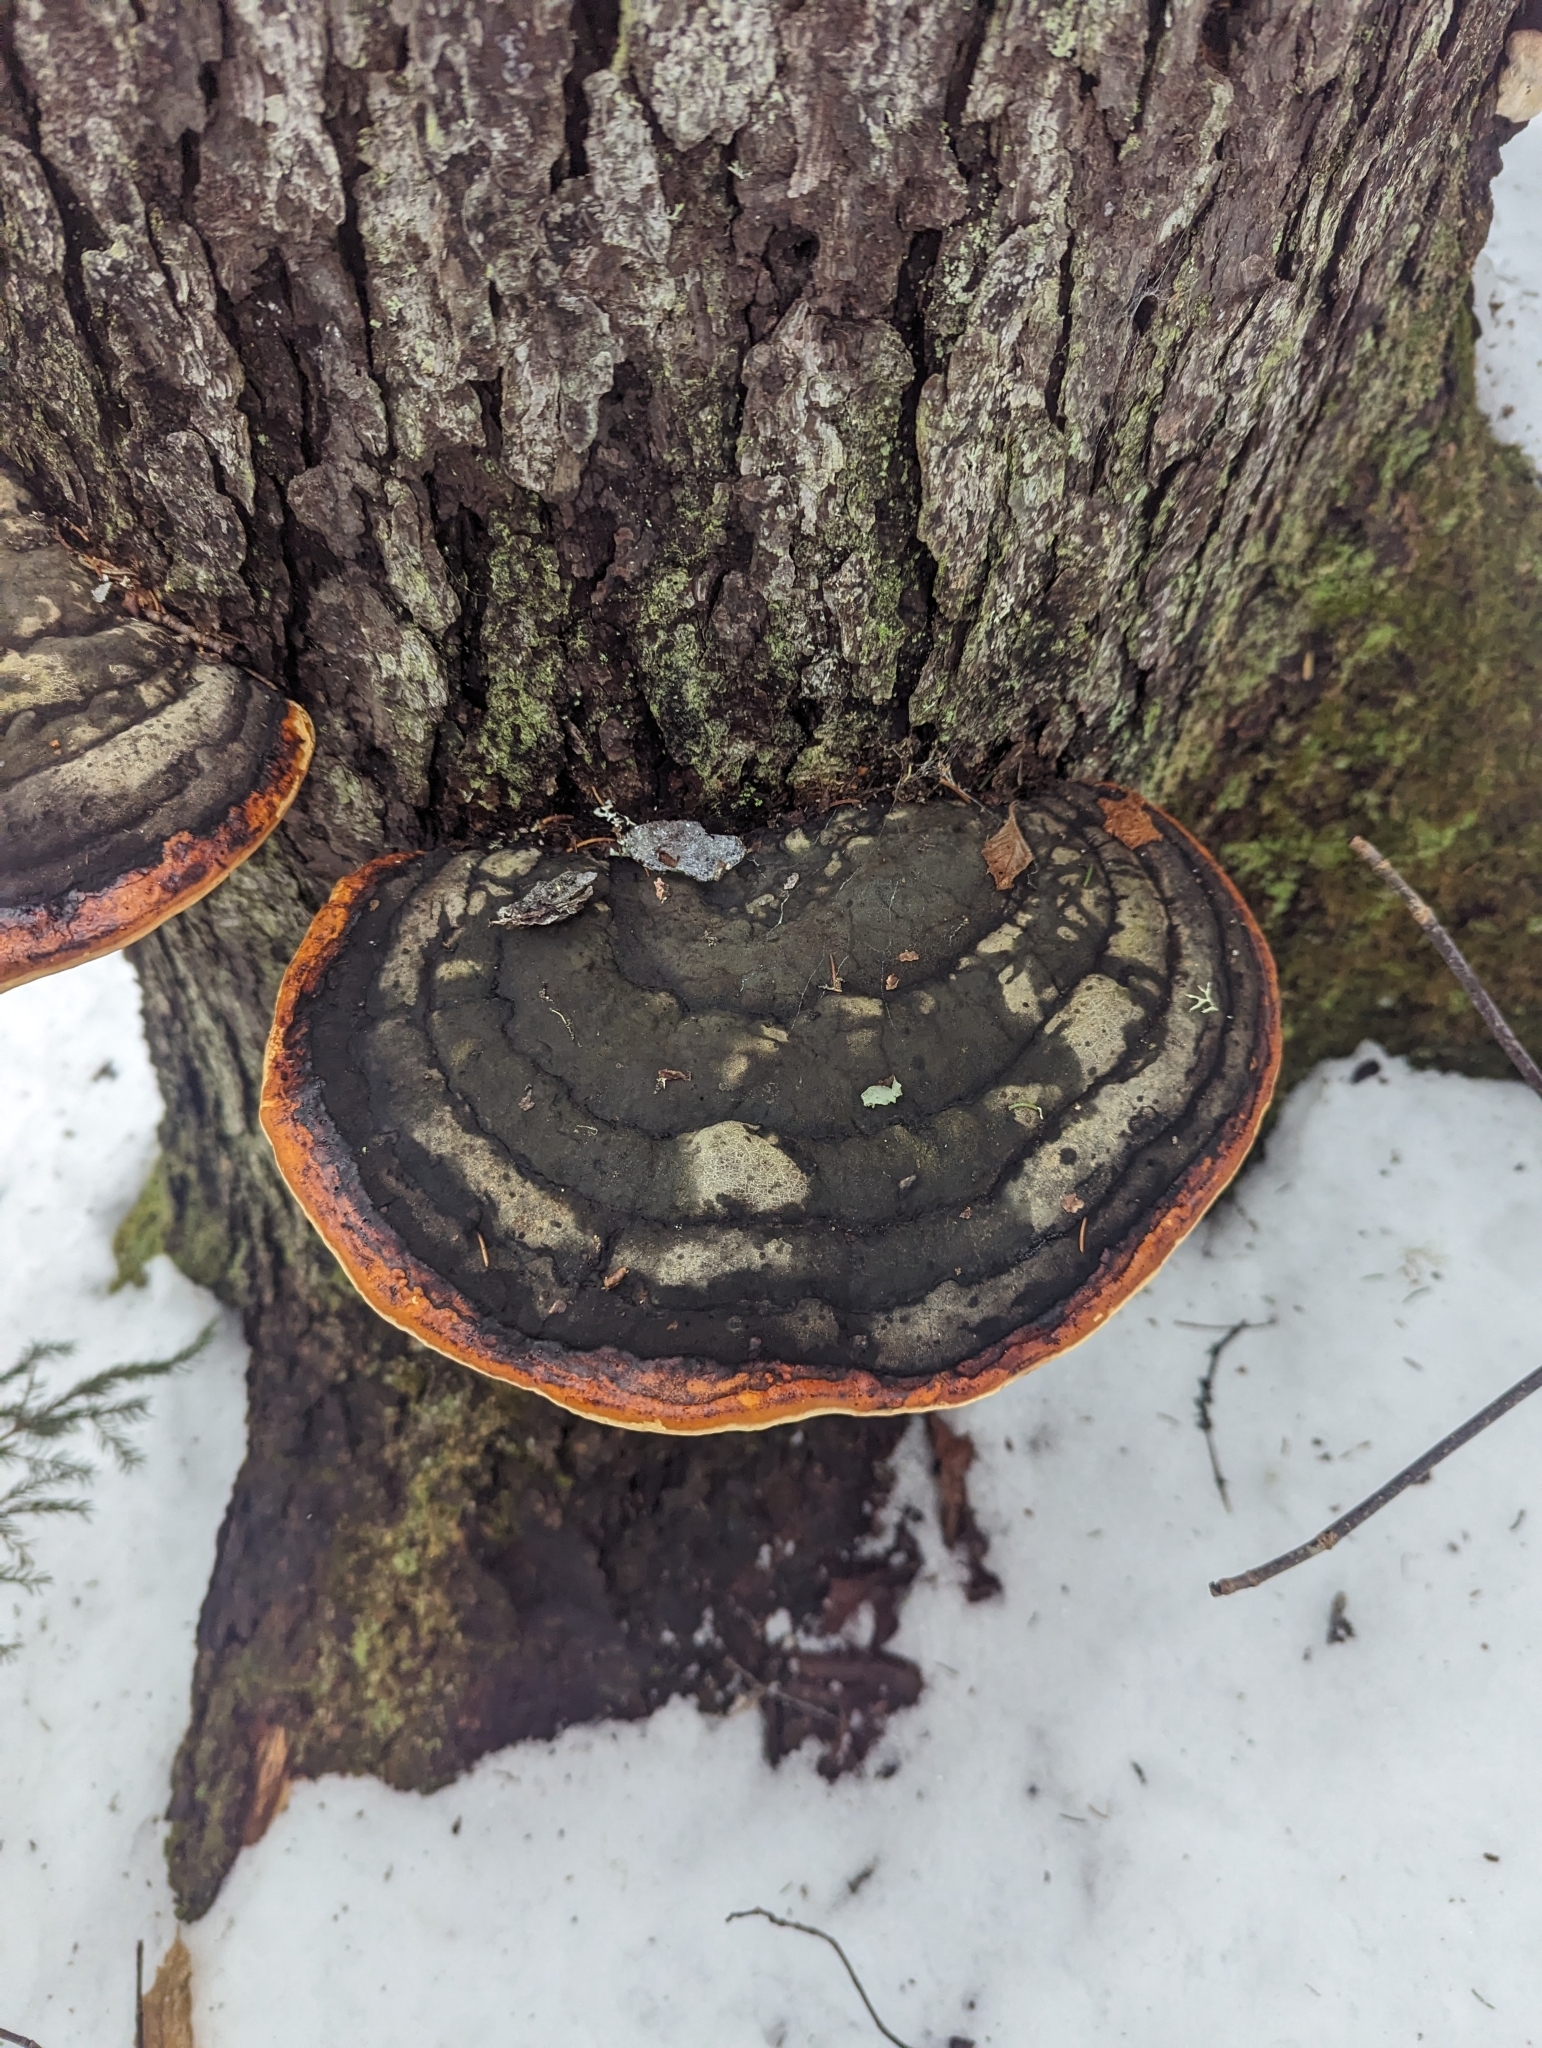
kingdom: Fungi
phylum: Basidiomycota
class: Agaricomycetes
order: Polyporales
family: Fomitopsidaceae
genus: Fomitopsis
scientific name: Fomitopsis mounceae
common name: Northern red belt
